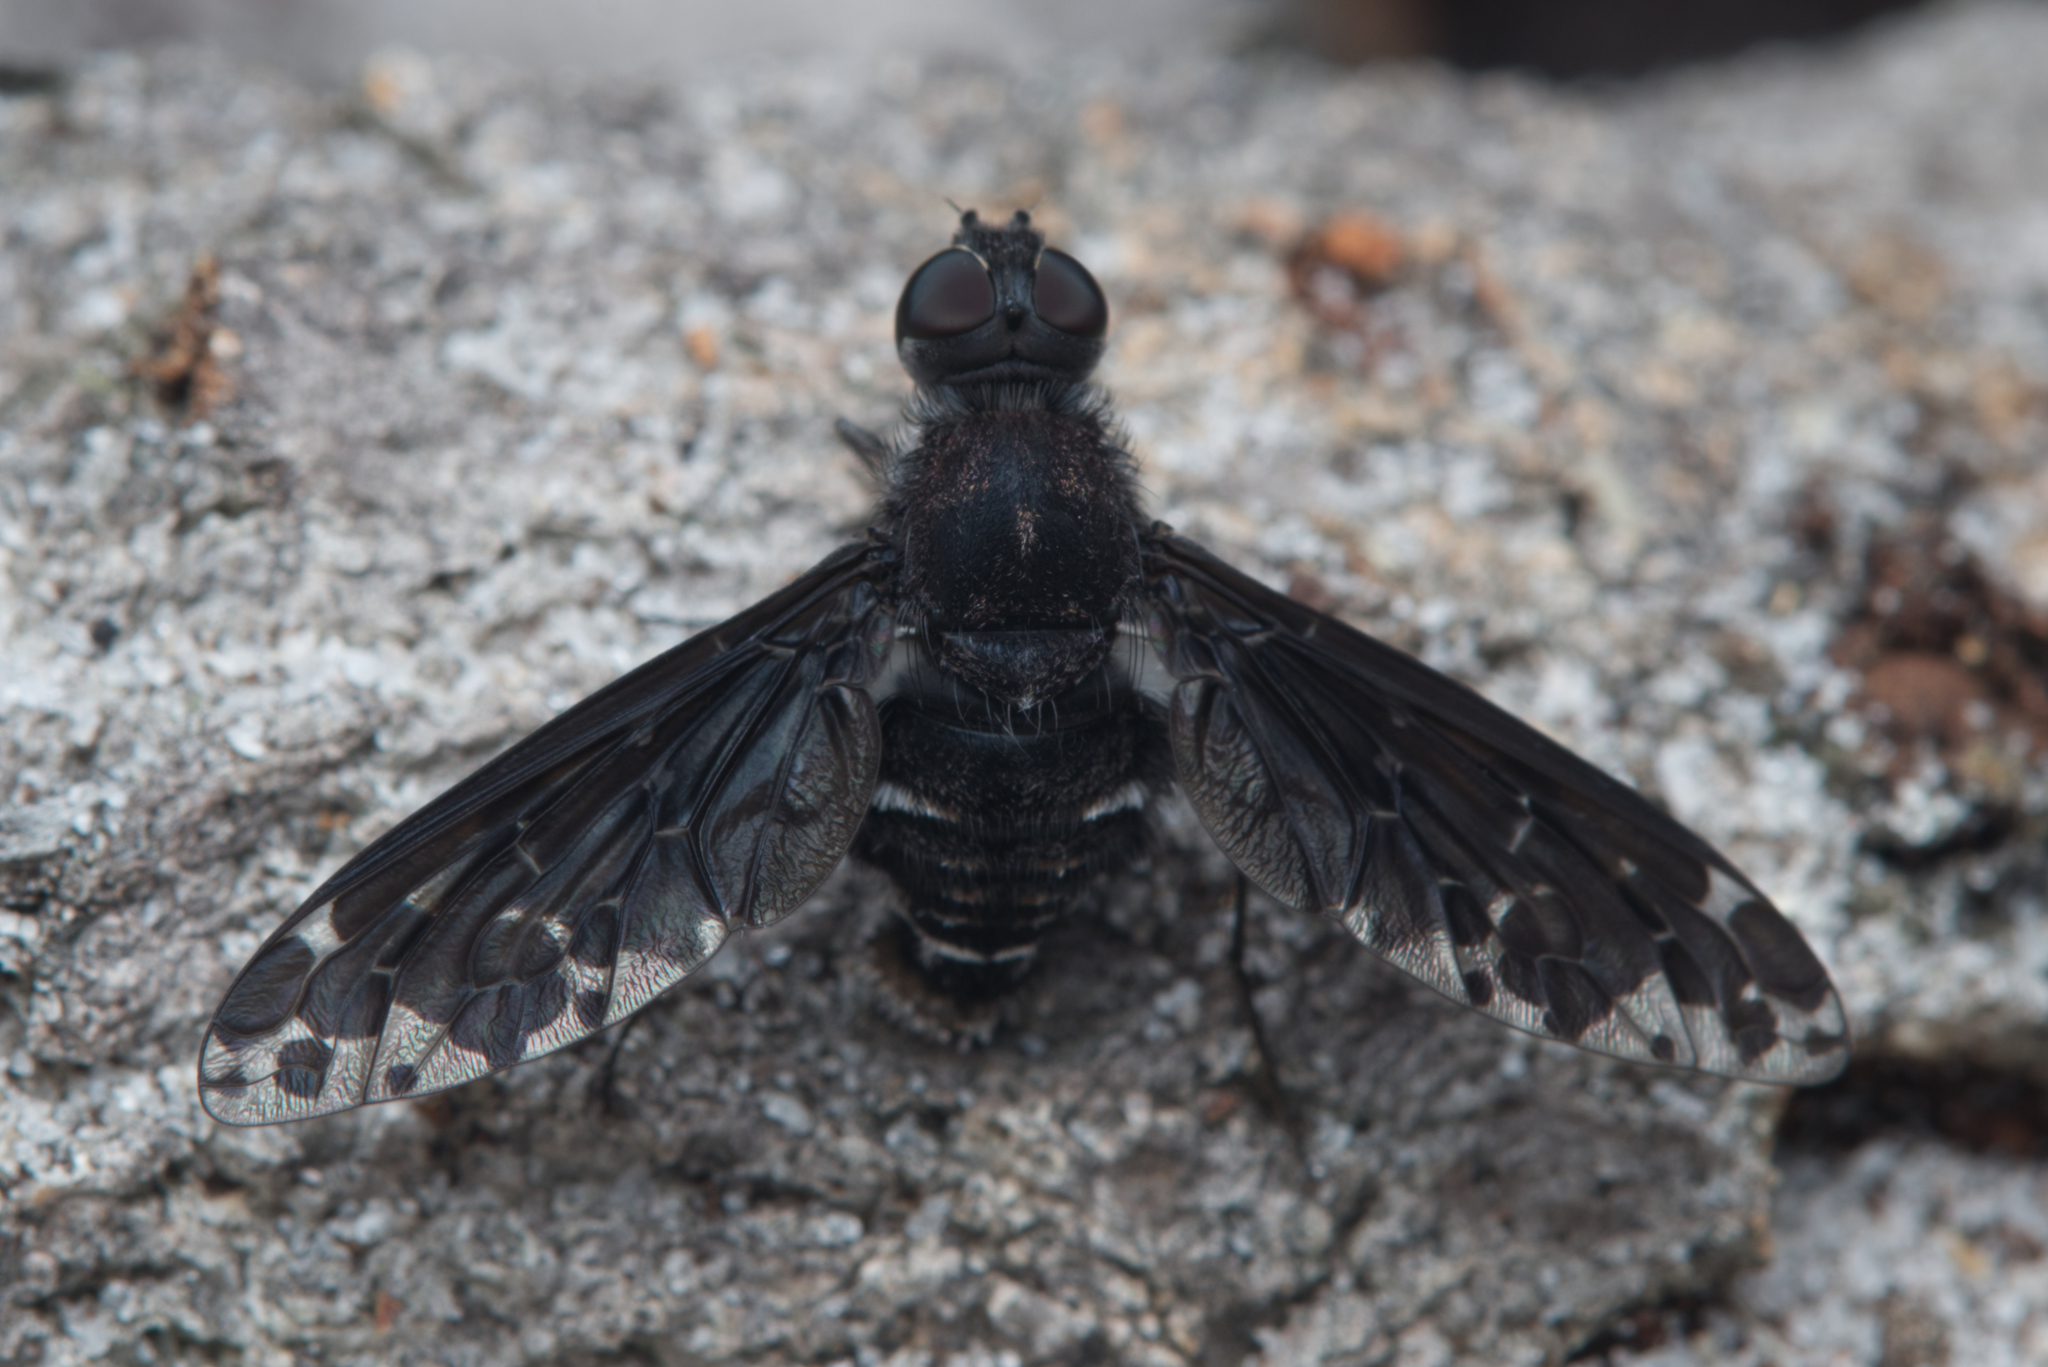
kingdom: Animalia
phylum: Arthropoda
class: Insecta
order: Diptera
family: Bombyliidae
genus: Anthrax
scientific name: Anthrax maculata
